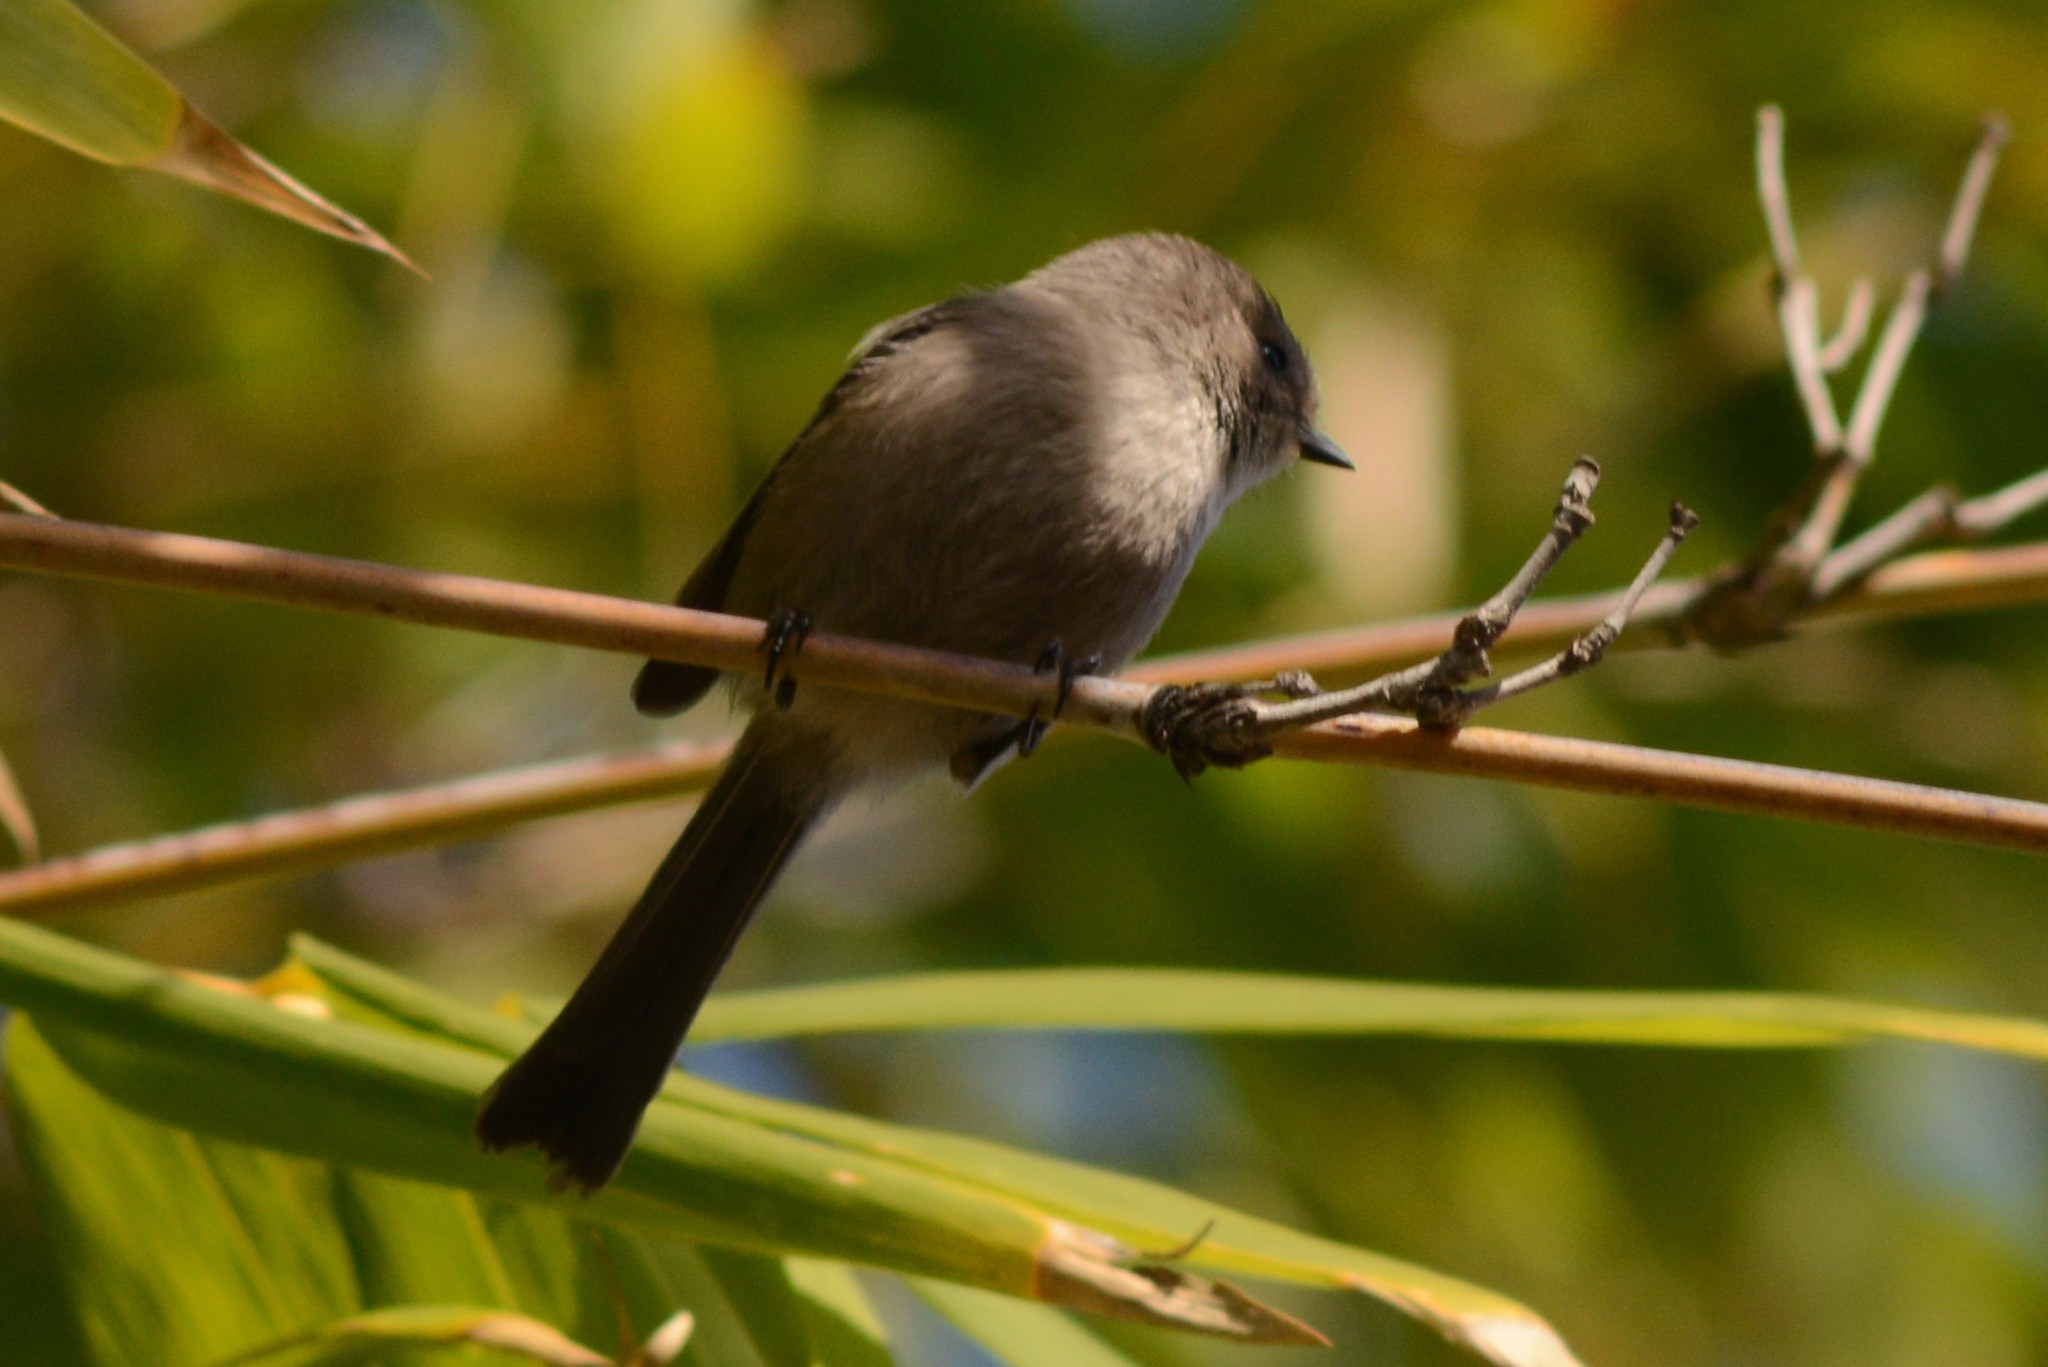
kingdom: Animalia
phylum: Chordata
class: Aves
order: Passeriformes
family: Aegithalidae
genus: Psaltriparus
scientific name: Psaltriparus minimus
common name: American bushtit
